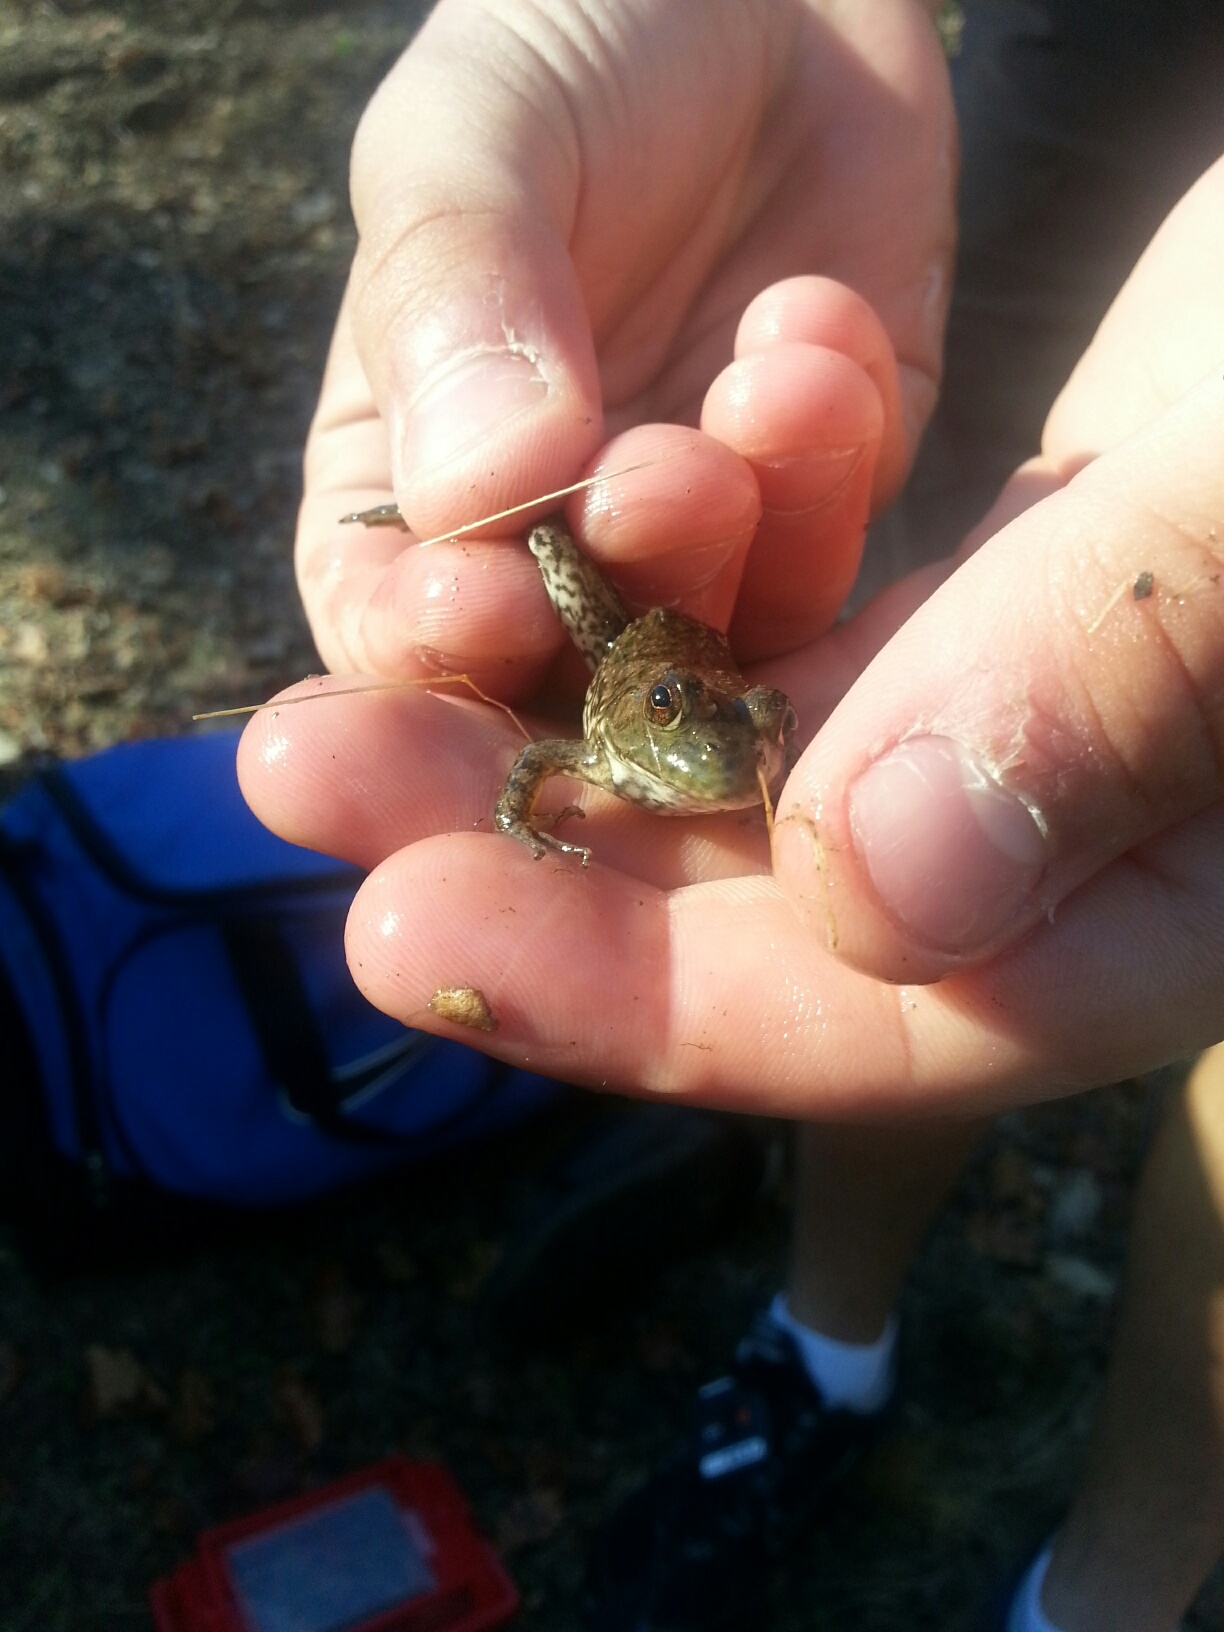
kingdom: Animalia
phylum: Chordata
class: Amphibia
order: Anura
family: Ranidae
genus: Lithobates
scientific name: Lithobates catesbeianus
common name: American bullfrog
